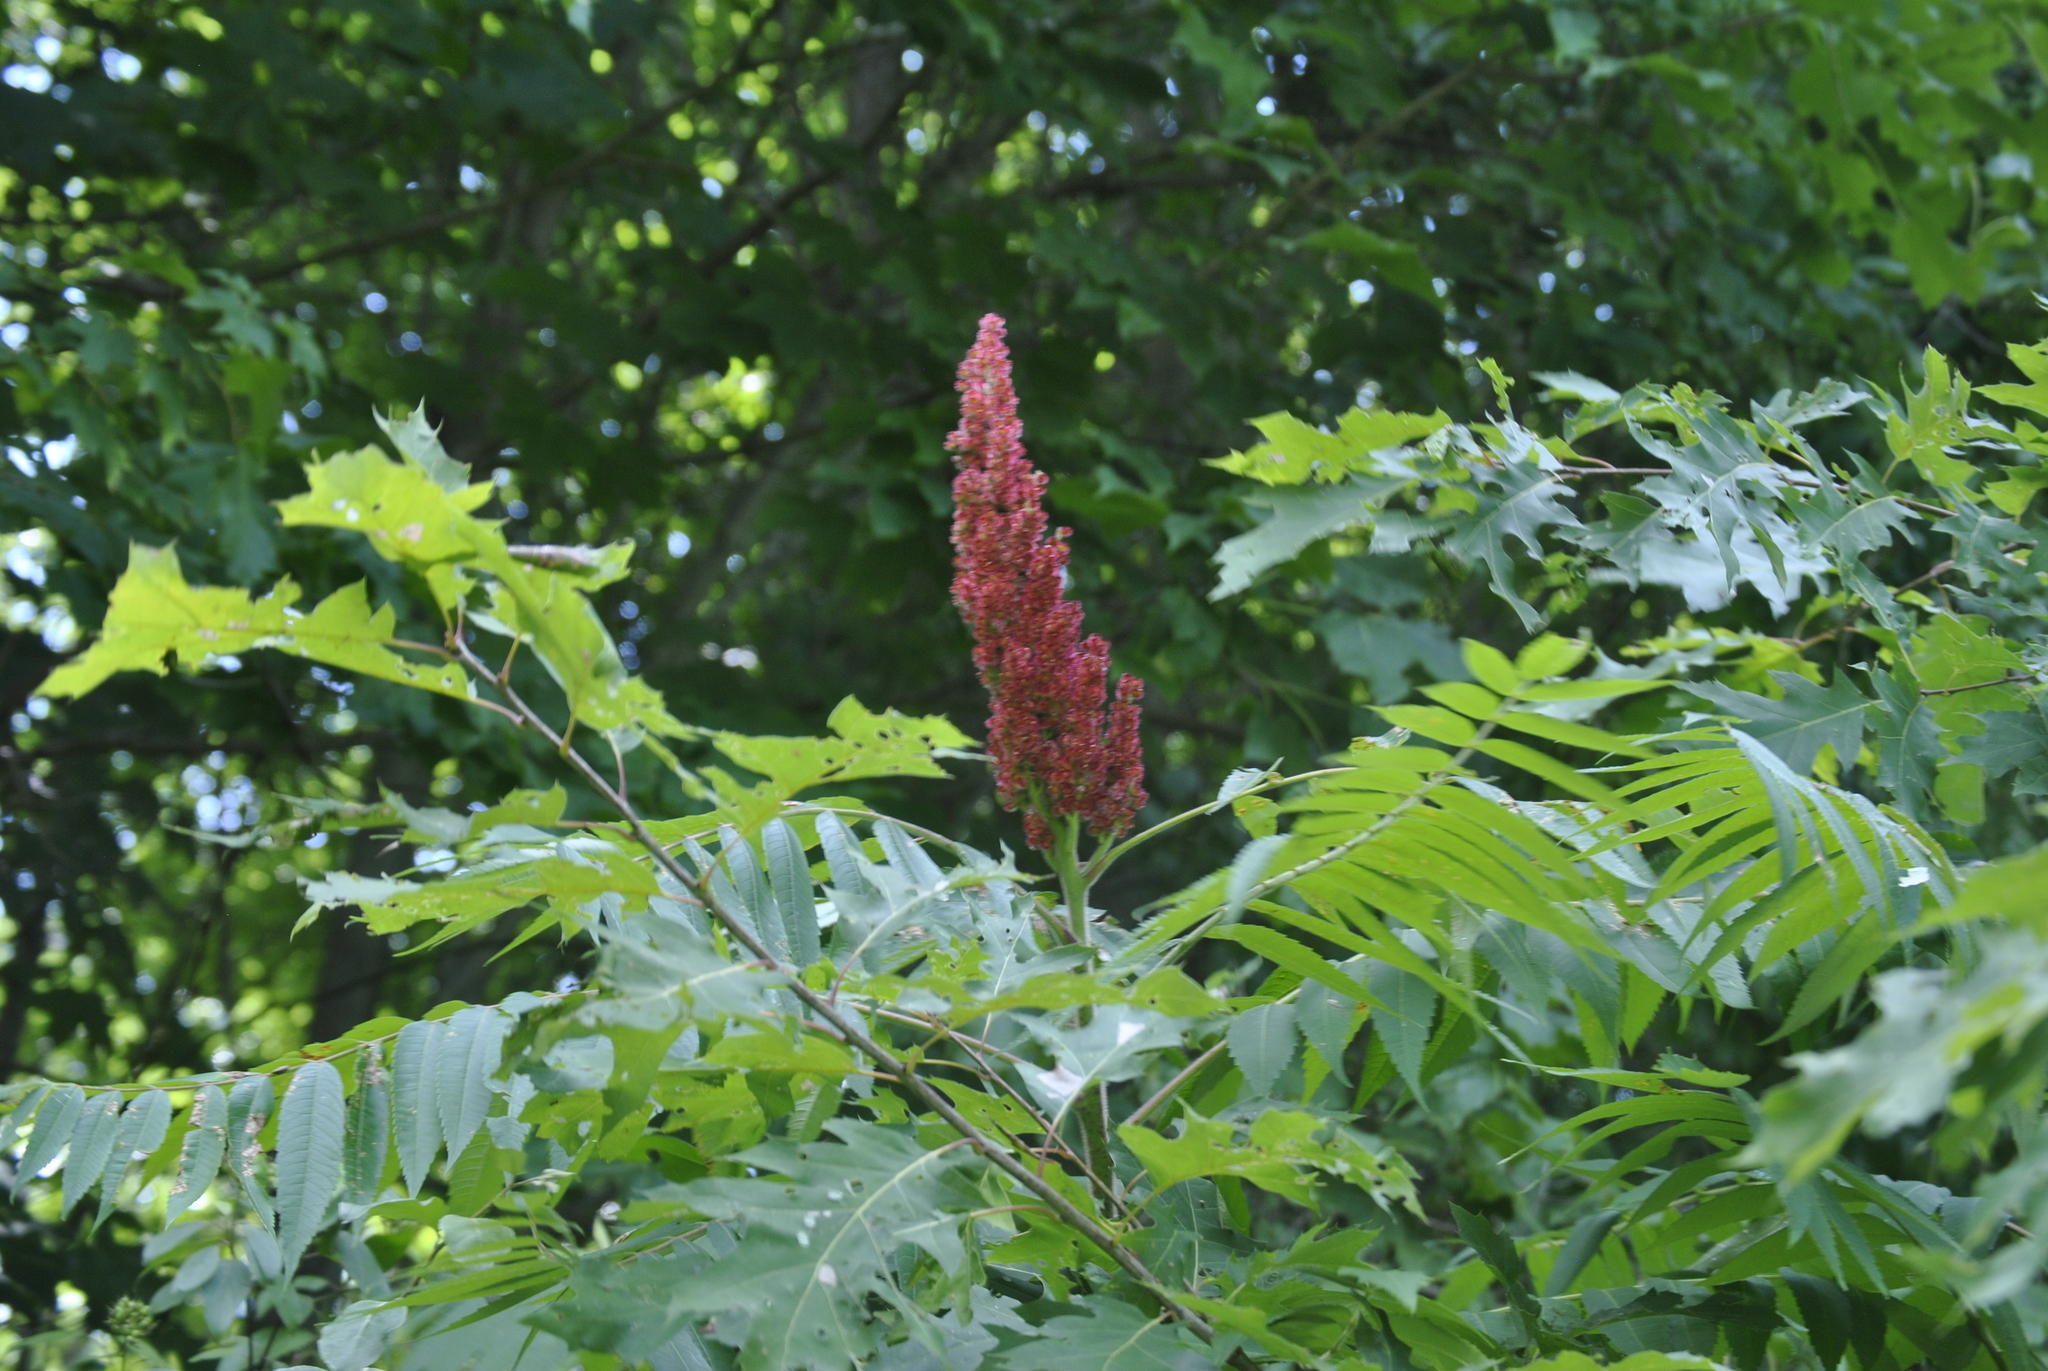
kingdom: Plantae
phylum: Tracheophyta
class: Magnoliopsida
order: Sapindales
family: Anacardiaceae
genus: Rhus
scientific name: Rhus typhina
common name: Staghorn sumac
